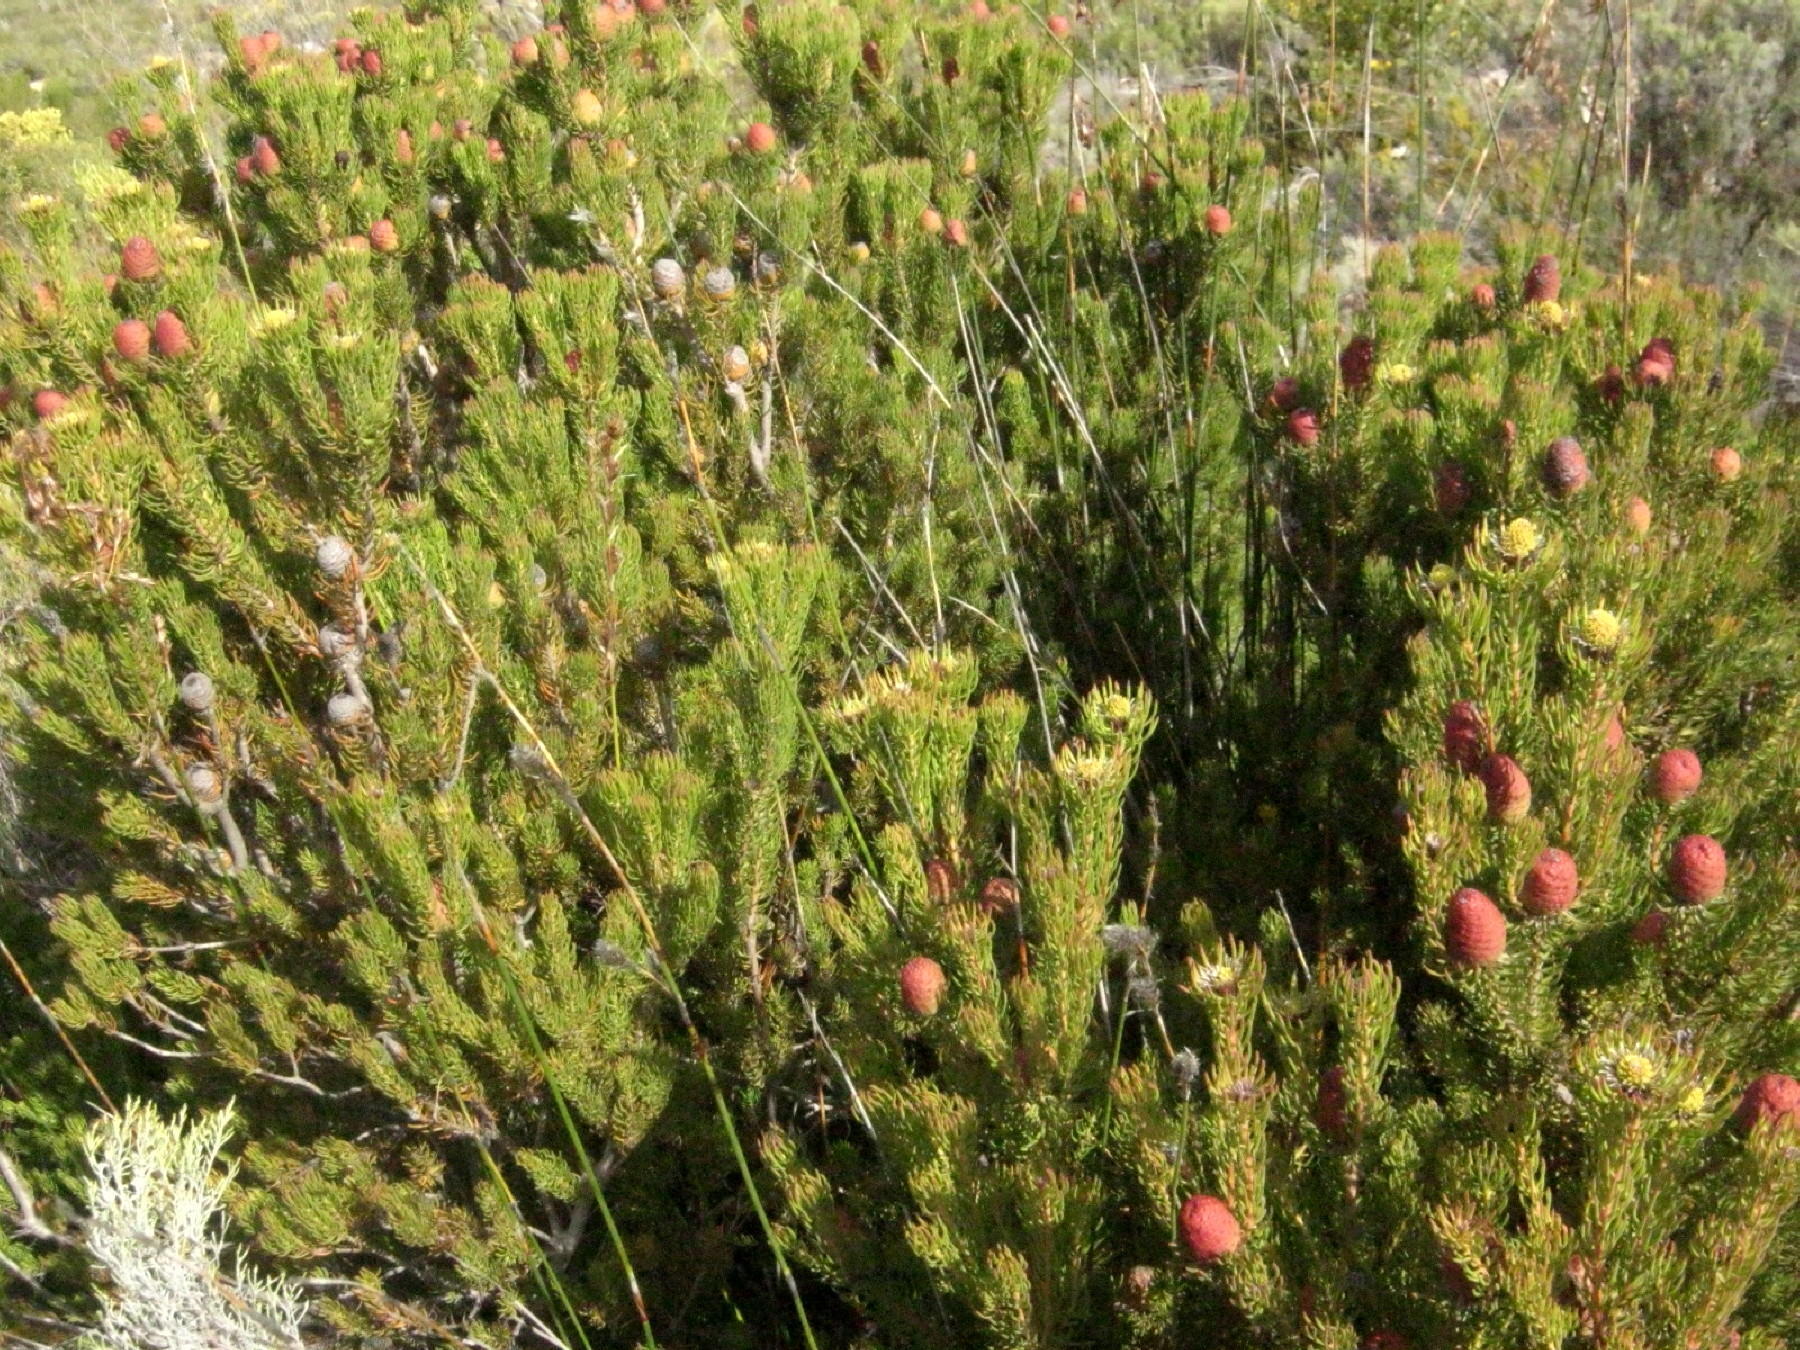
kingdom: Plantae
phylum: Tracheophyta
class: Magnoliopsida
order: Proteales
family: Proteaceae
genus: Leucadendron
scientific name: Leucadendron teretifolium
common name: Needle-leaf conebush
